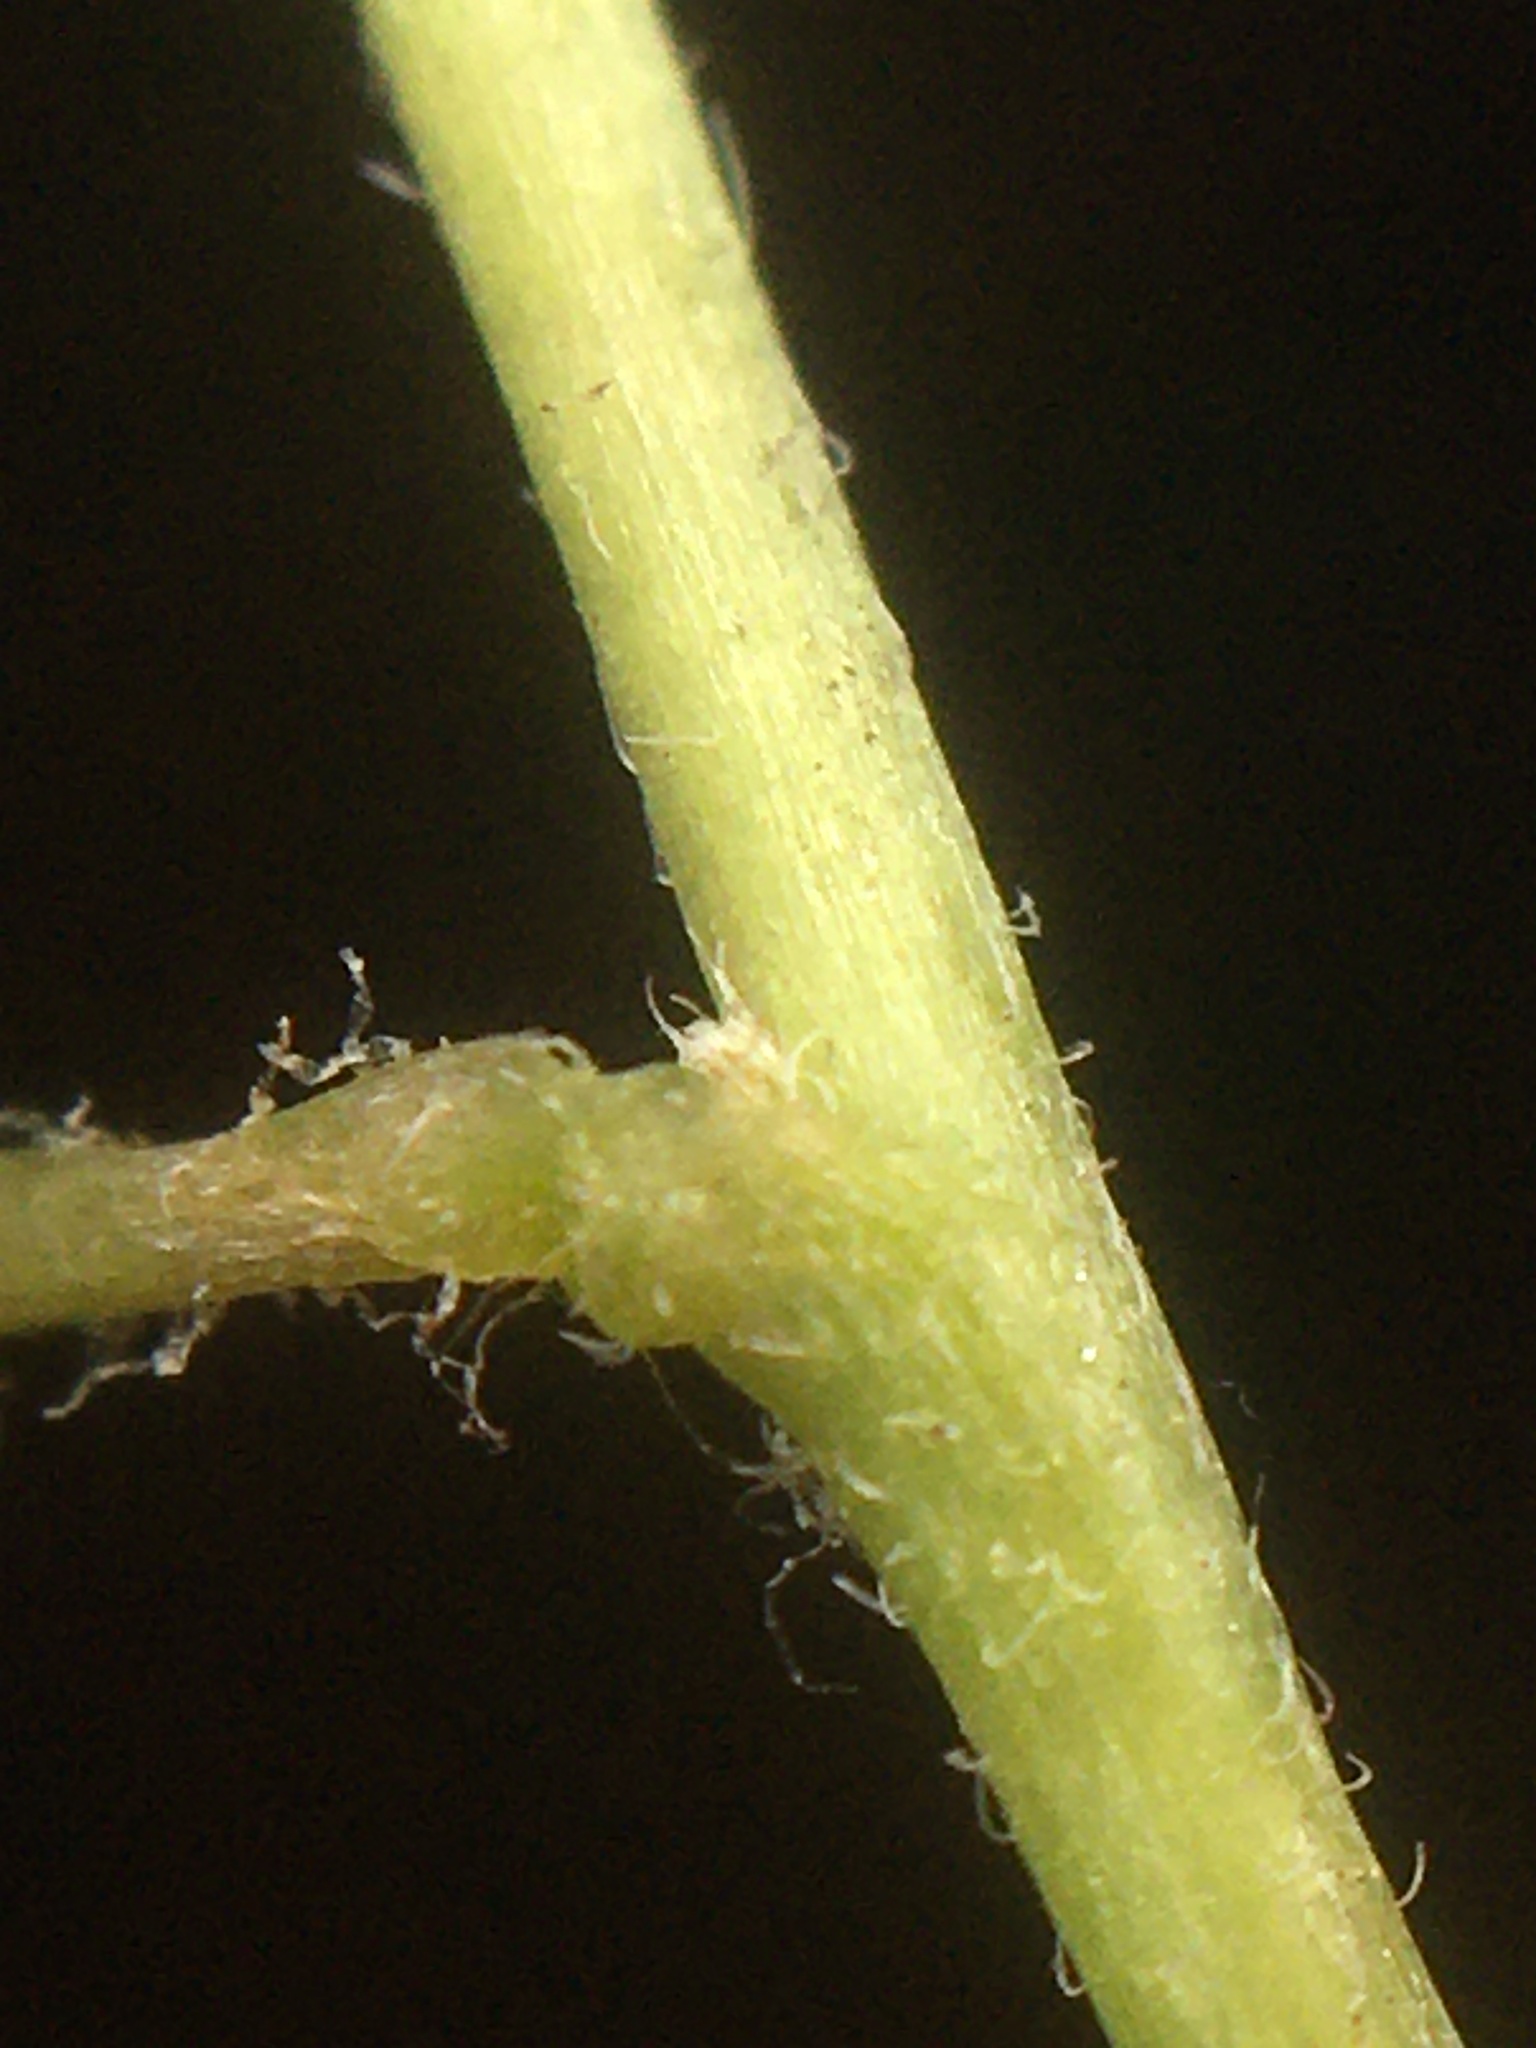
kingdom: Plantae
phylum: Tracheophyta
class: Magnoliopsida
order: Oxalidales
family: Oxalidaceae
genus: Oxalis
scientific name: Oxalis stricta
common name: Upright yellow-sorrel
